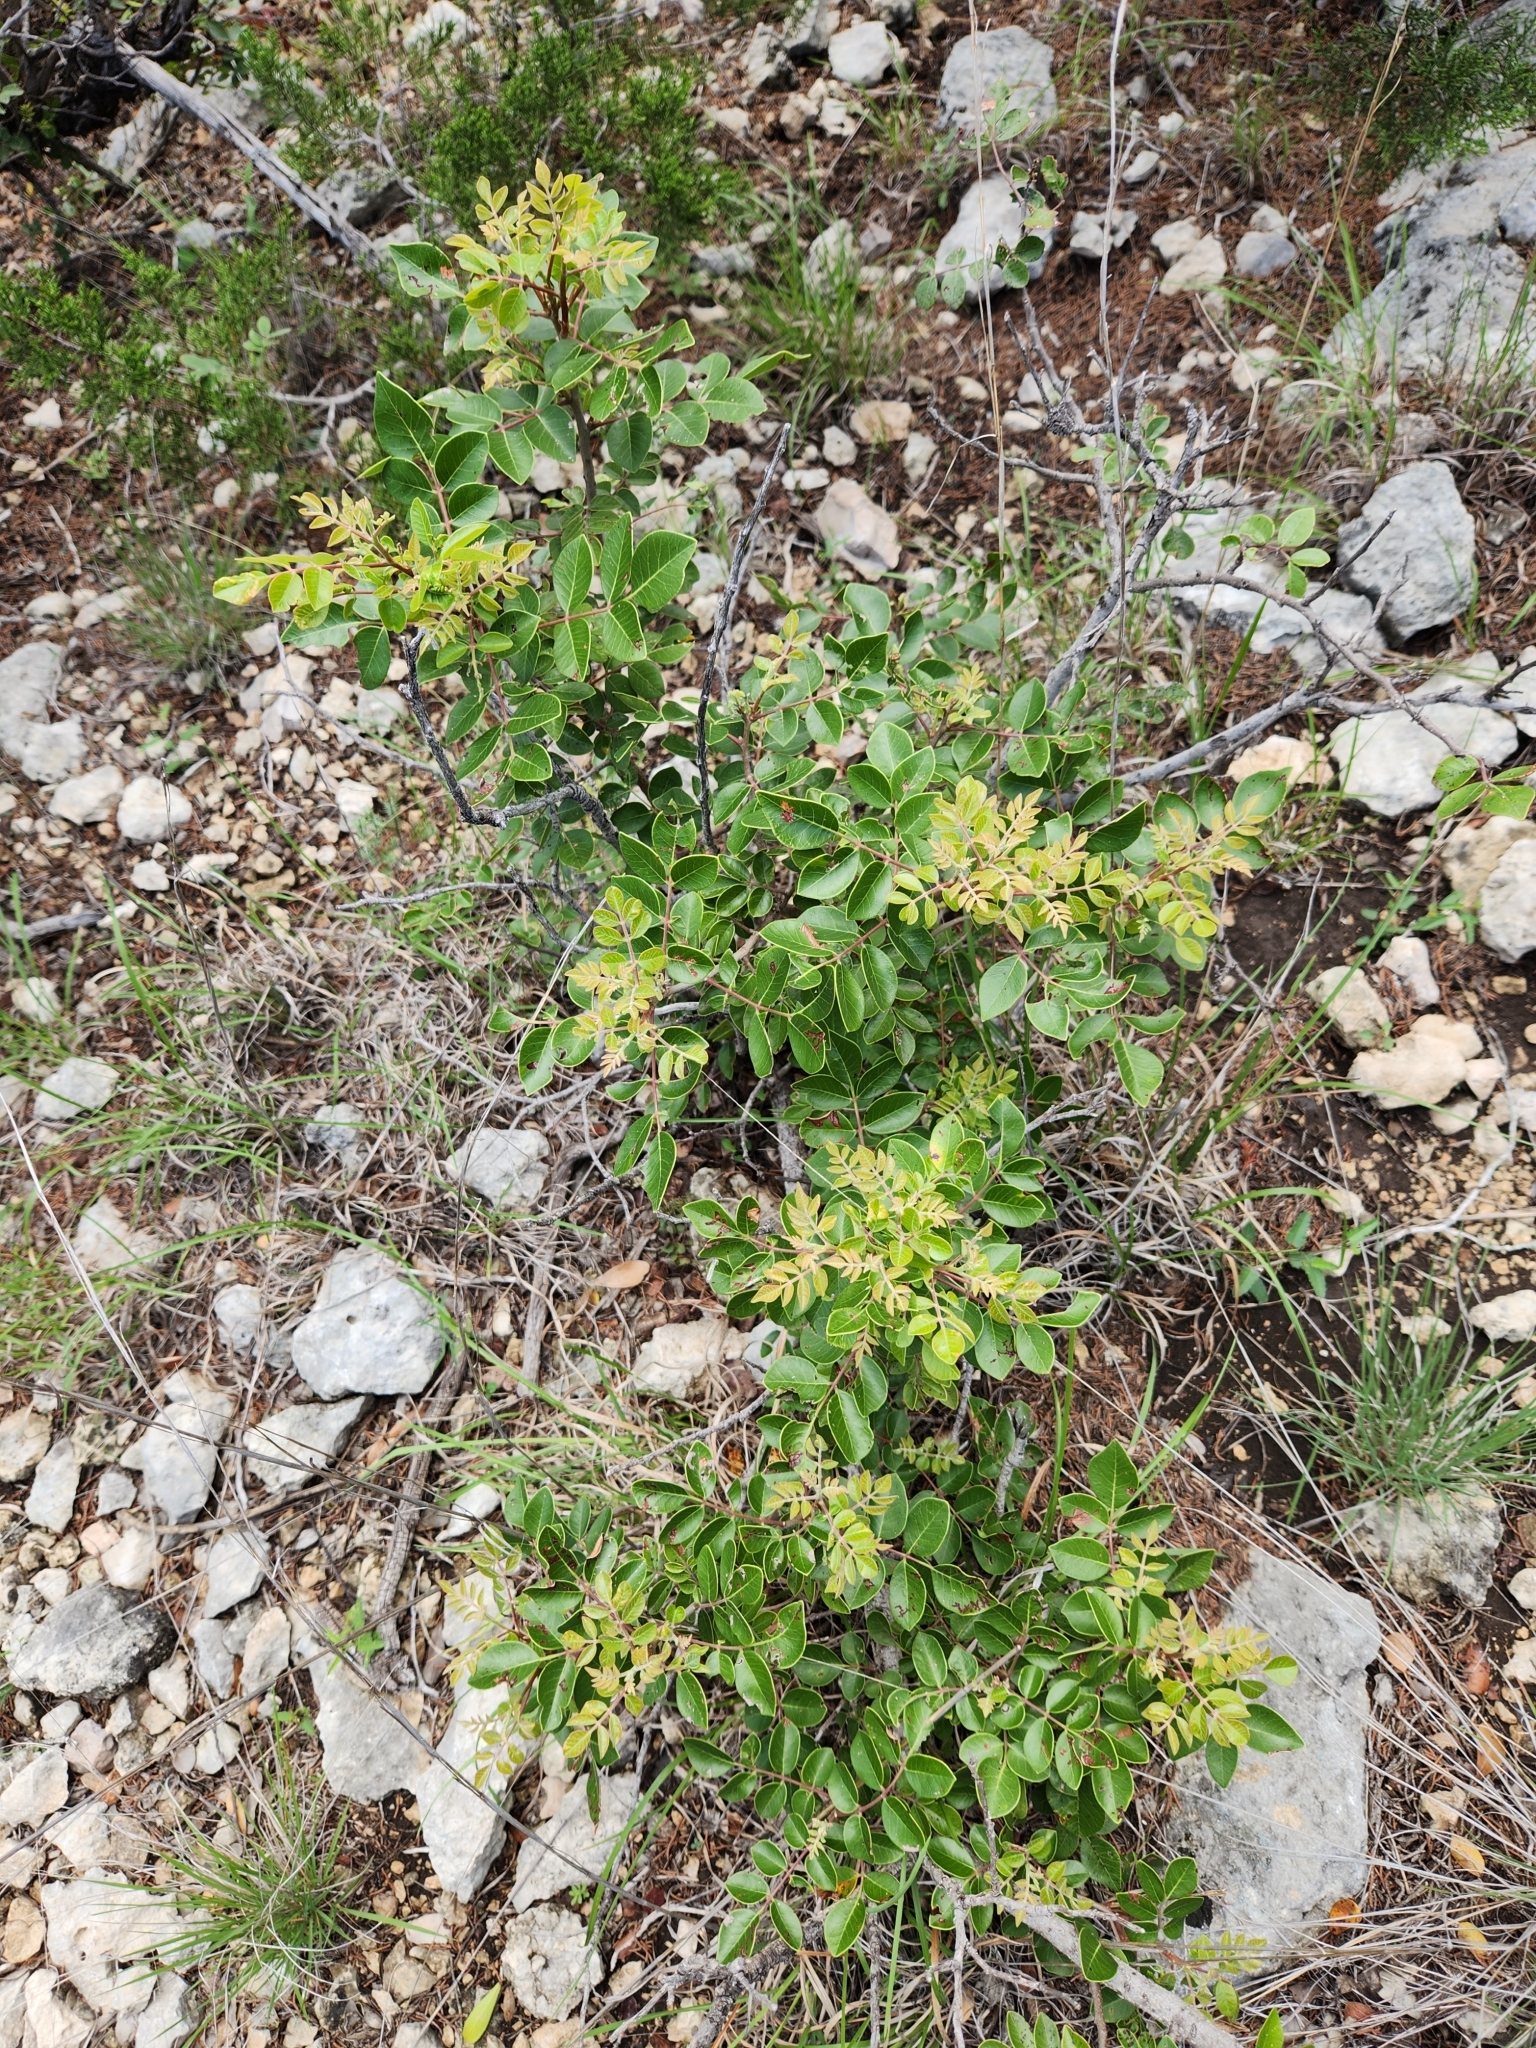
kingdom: Plantae
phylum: Tracheophyta
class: Magnoliopsida
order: Sapindales
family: Anacardiaceae
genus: Rhus
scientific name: Rhus virens
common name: Evergreen sumac
